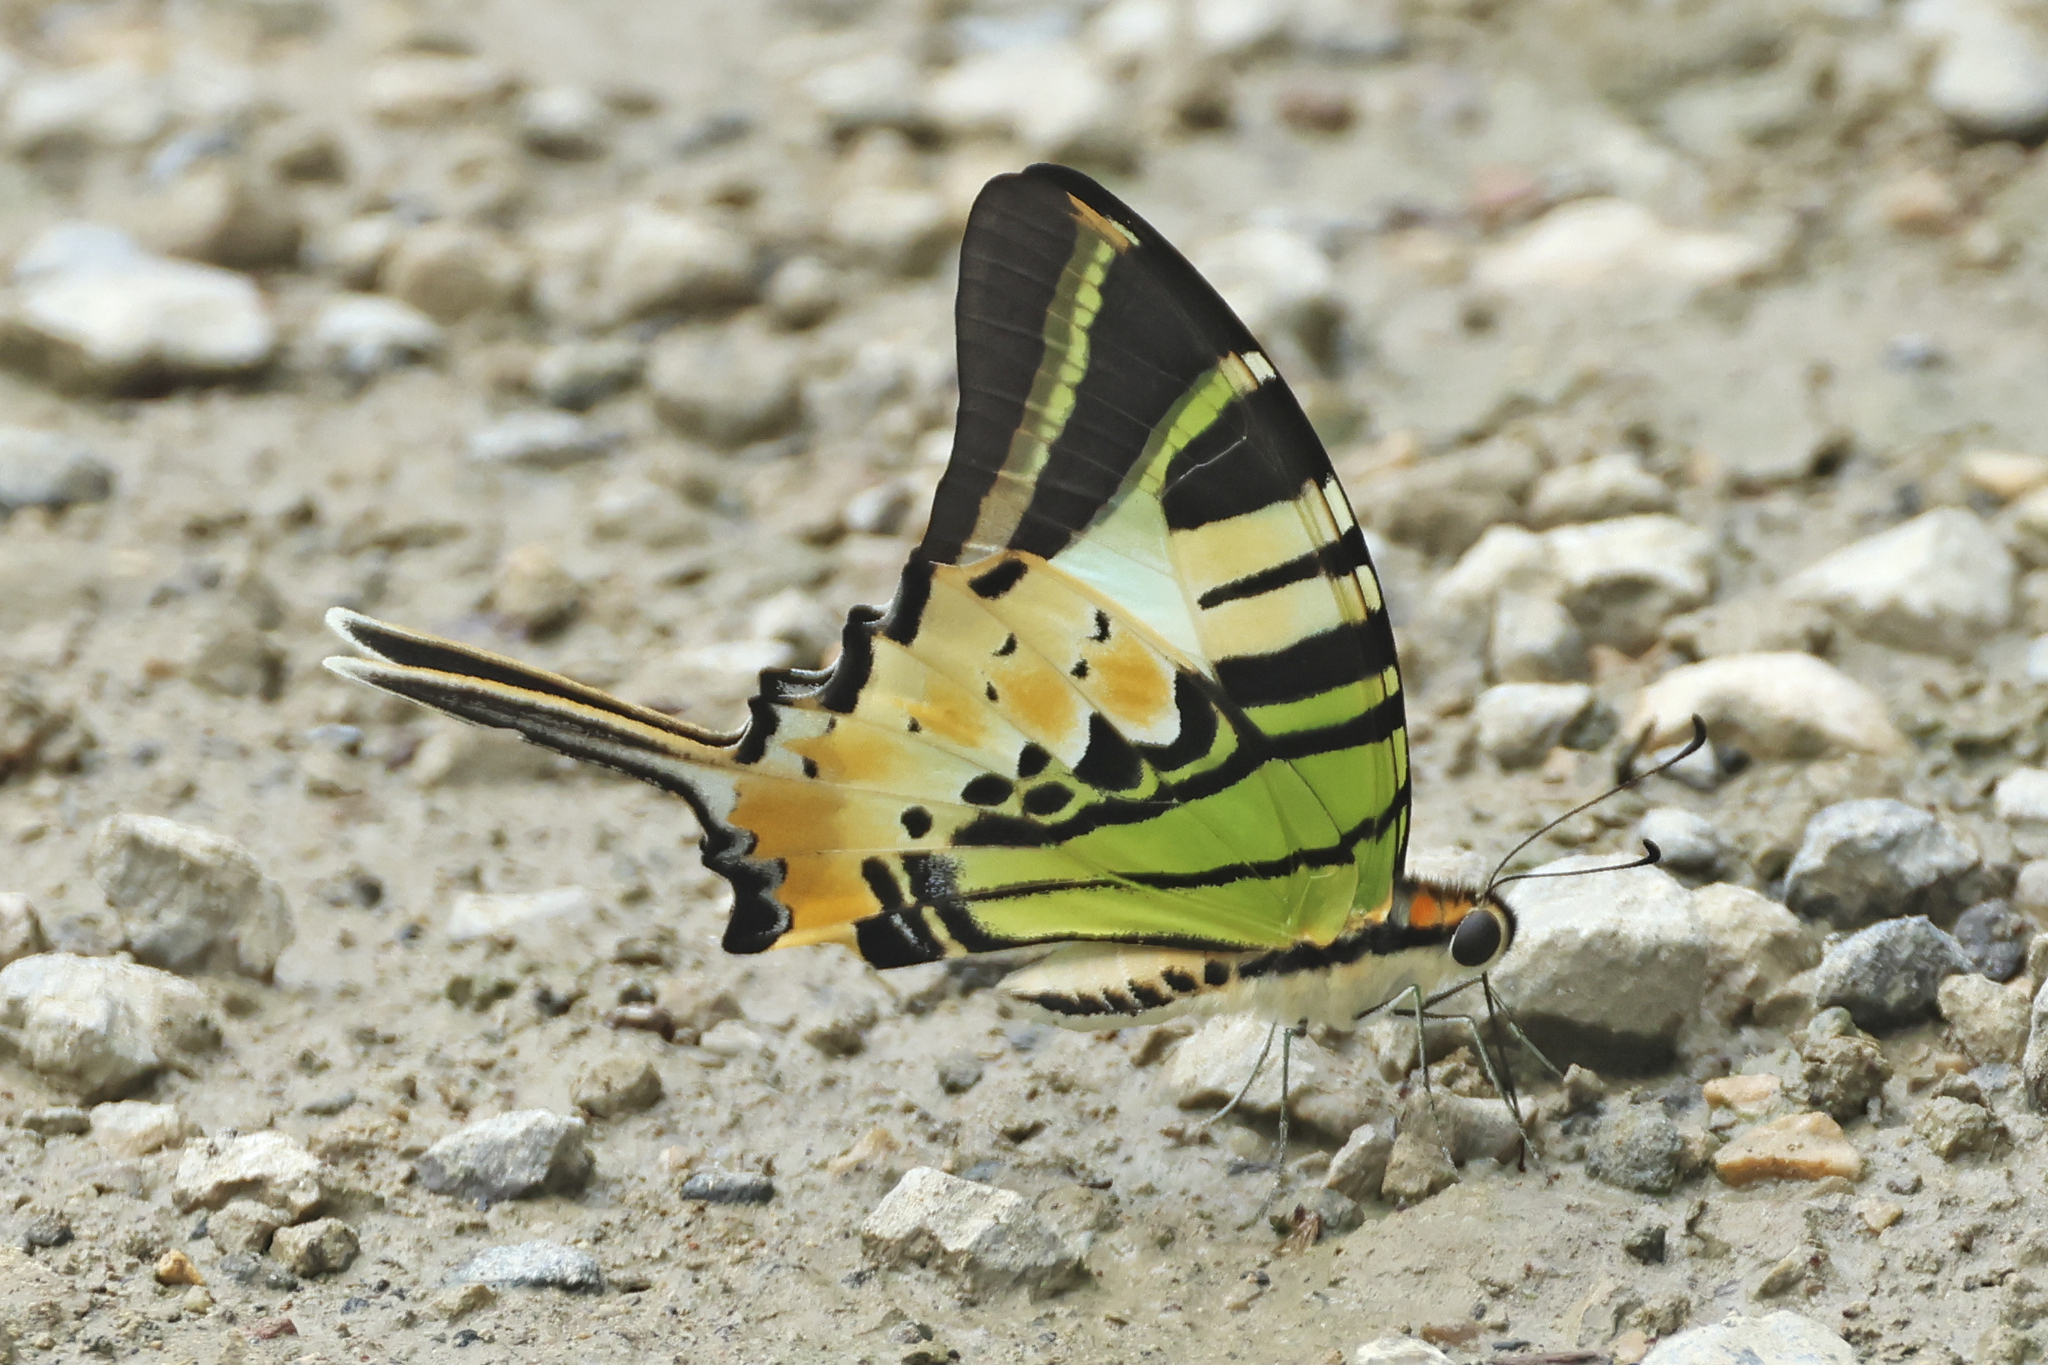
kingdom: Animalia
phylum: Arthropoda
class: Insecta
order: Lepidoptera
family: Papilionidae
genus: Graphium
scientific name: Graphium antiphates
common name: Fivebar swordtail
